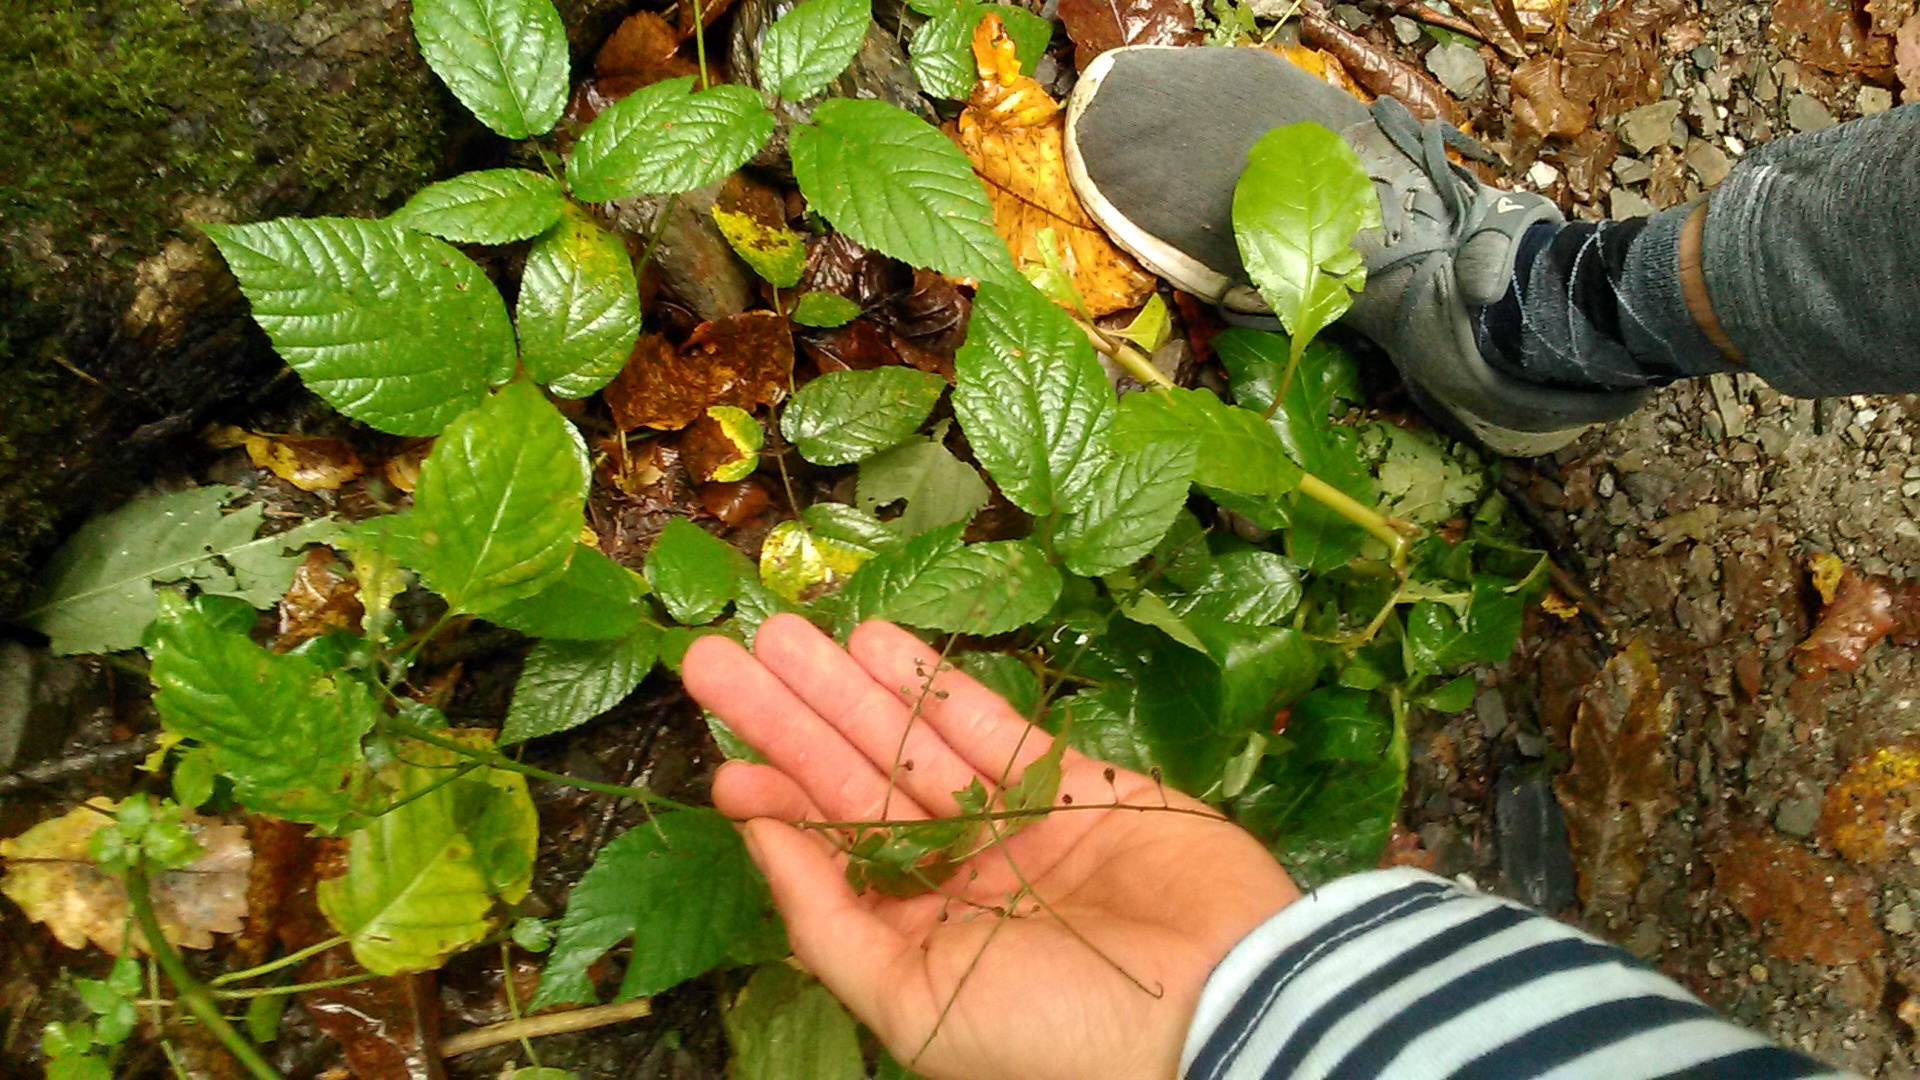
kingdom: Plantae
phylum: Tracheophyta
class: Magnoliopsida
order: Myrtales
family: Onagraceae
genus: Circaea
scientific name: Circaea lutetiana
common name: Enchanter's-nightshade
